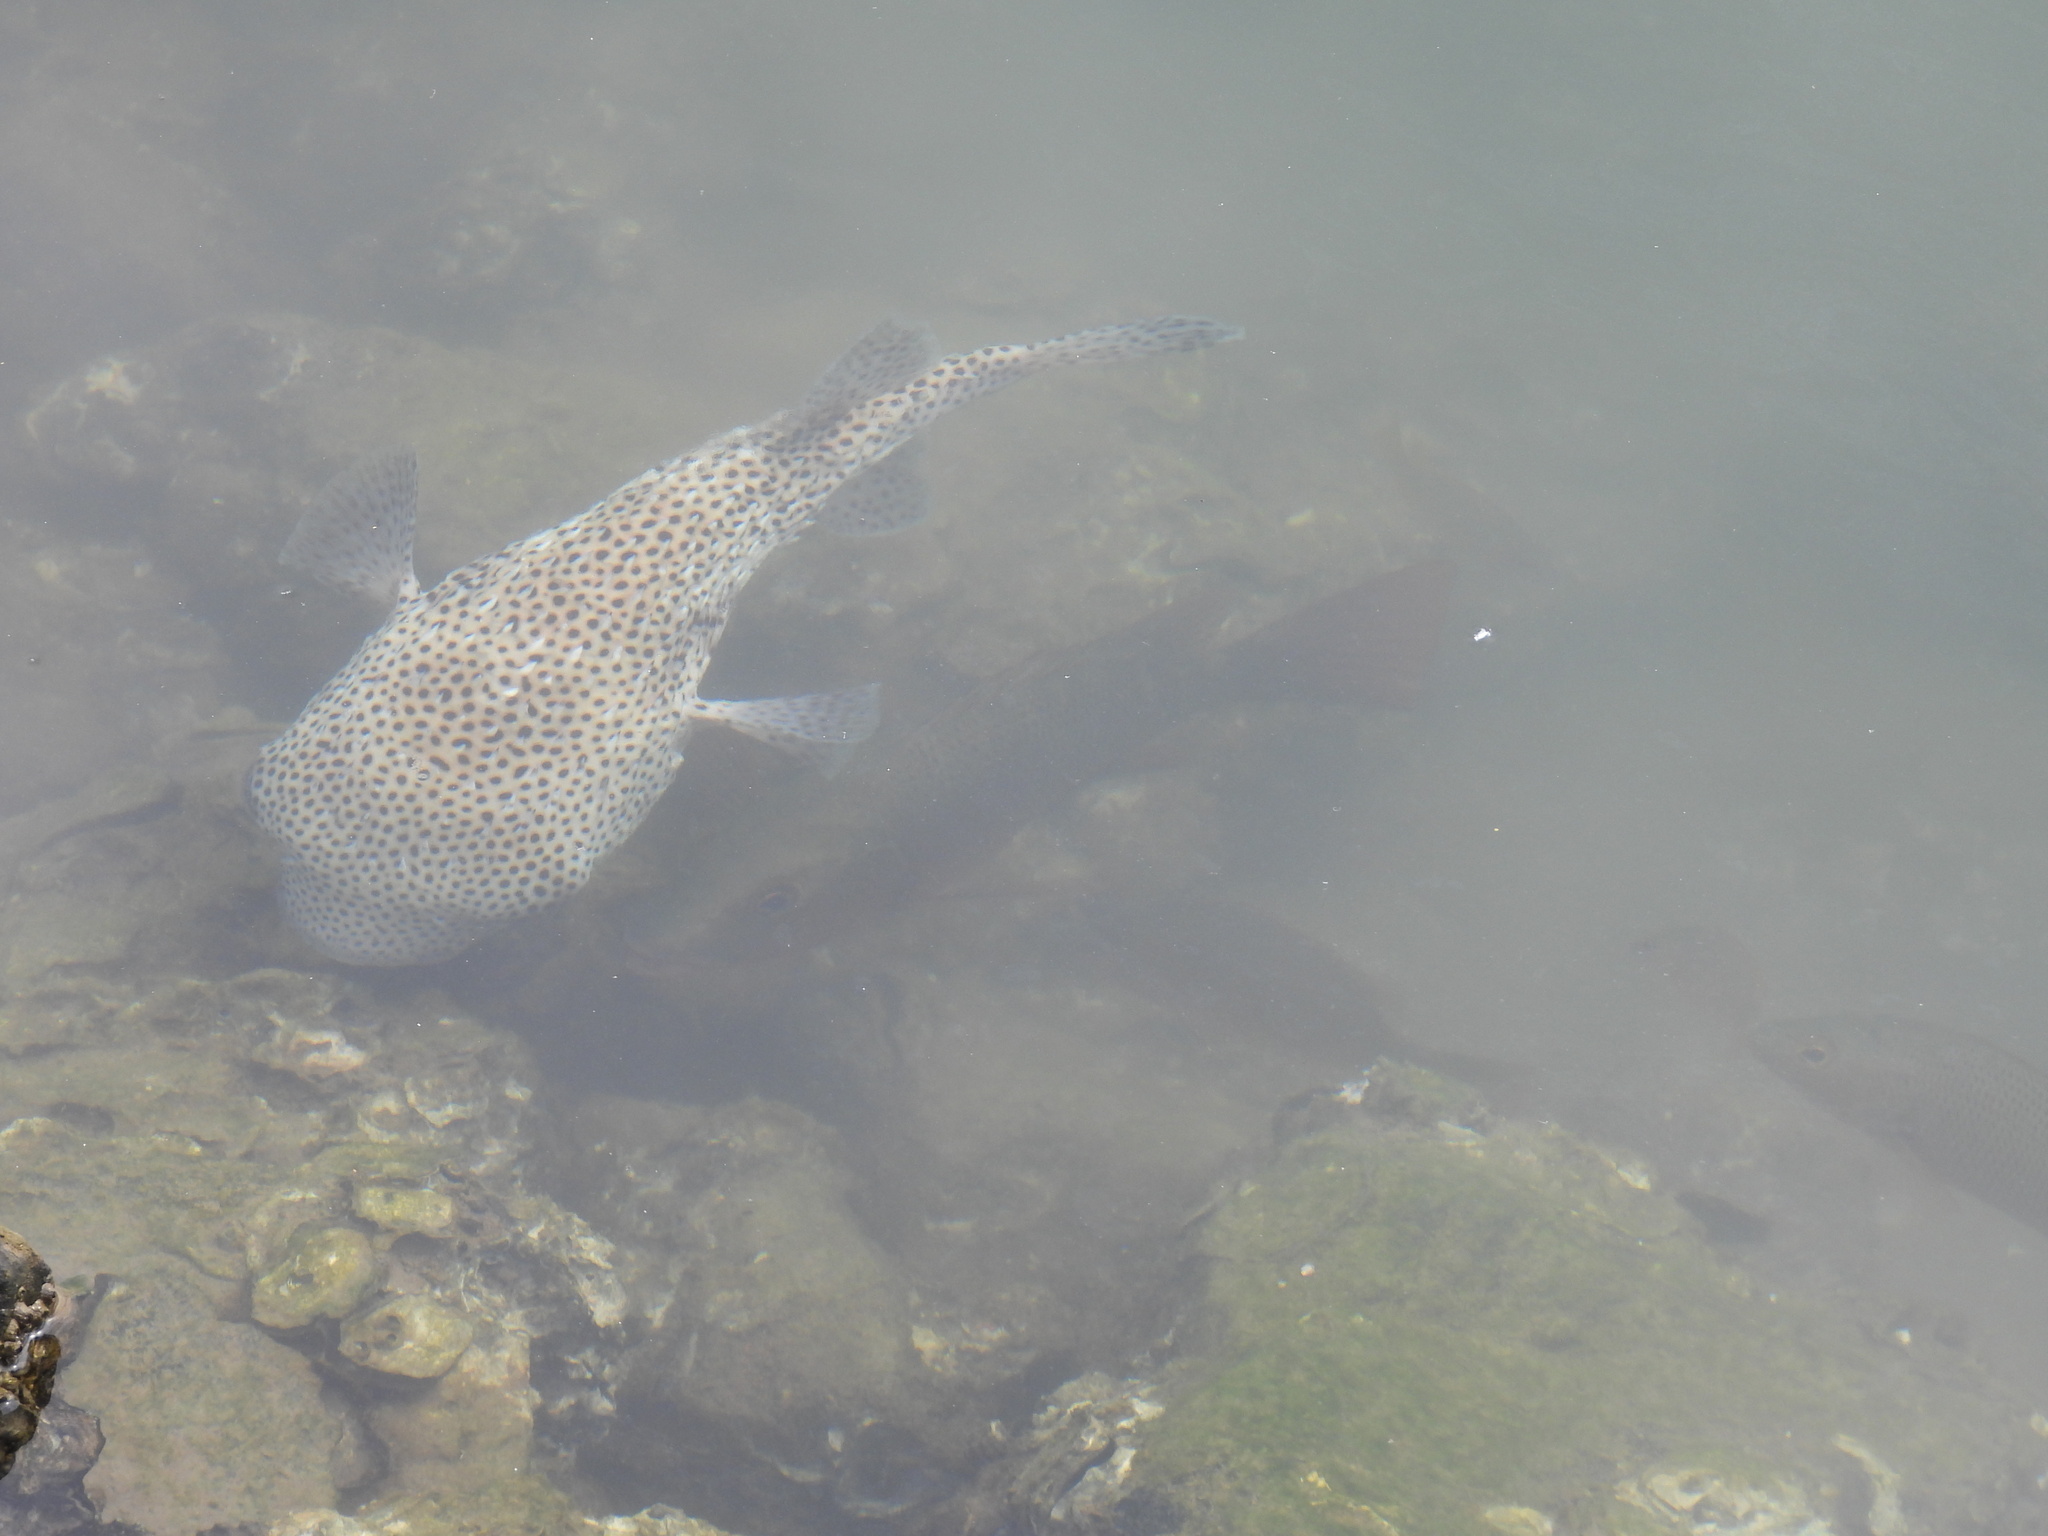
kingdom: Animalia
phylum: Chordata
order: Tetraodontiformes
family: Diodontidae
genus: Diodon
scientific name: Diodon hystrix
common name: Giant porcupinefish
